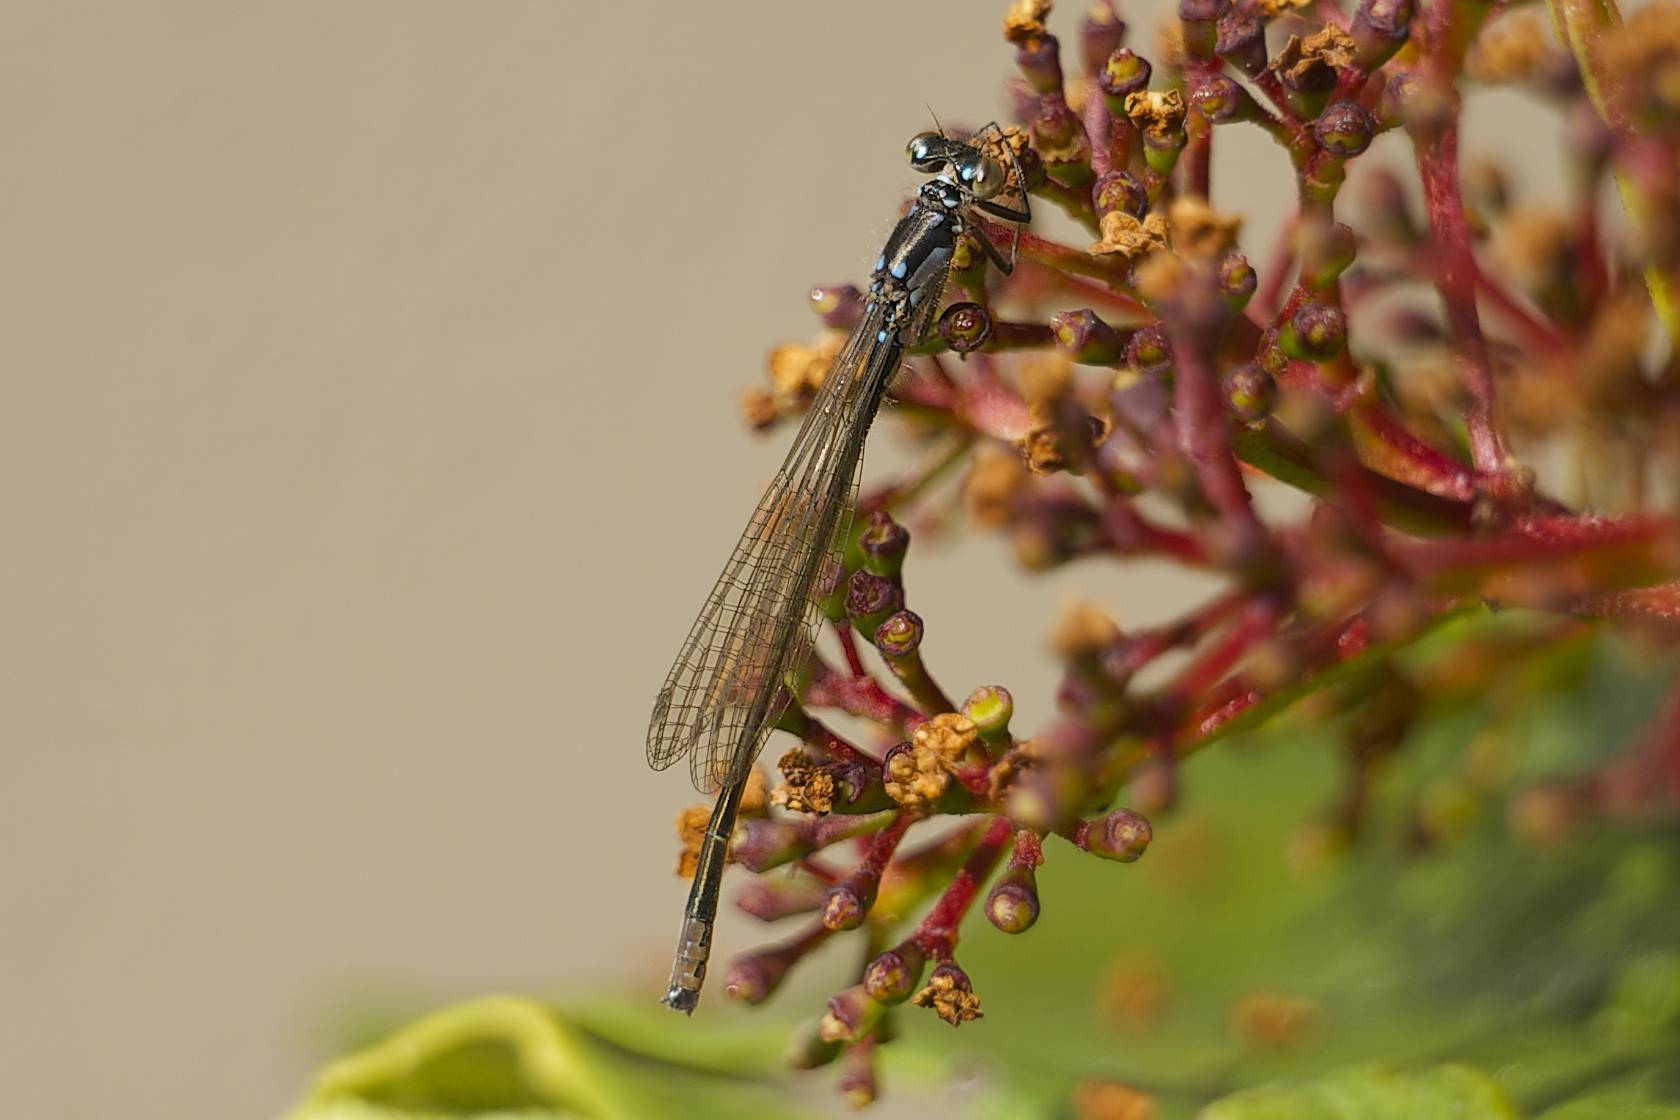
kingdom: Animalia
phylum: Arthropoda
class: Insecta
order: Odonata
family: Coenagrionidae
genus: Ischnura
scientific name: Ischnura cervula
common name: Pacific forktail
